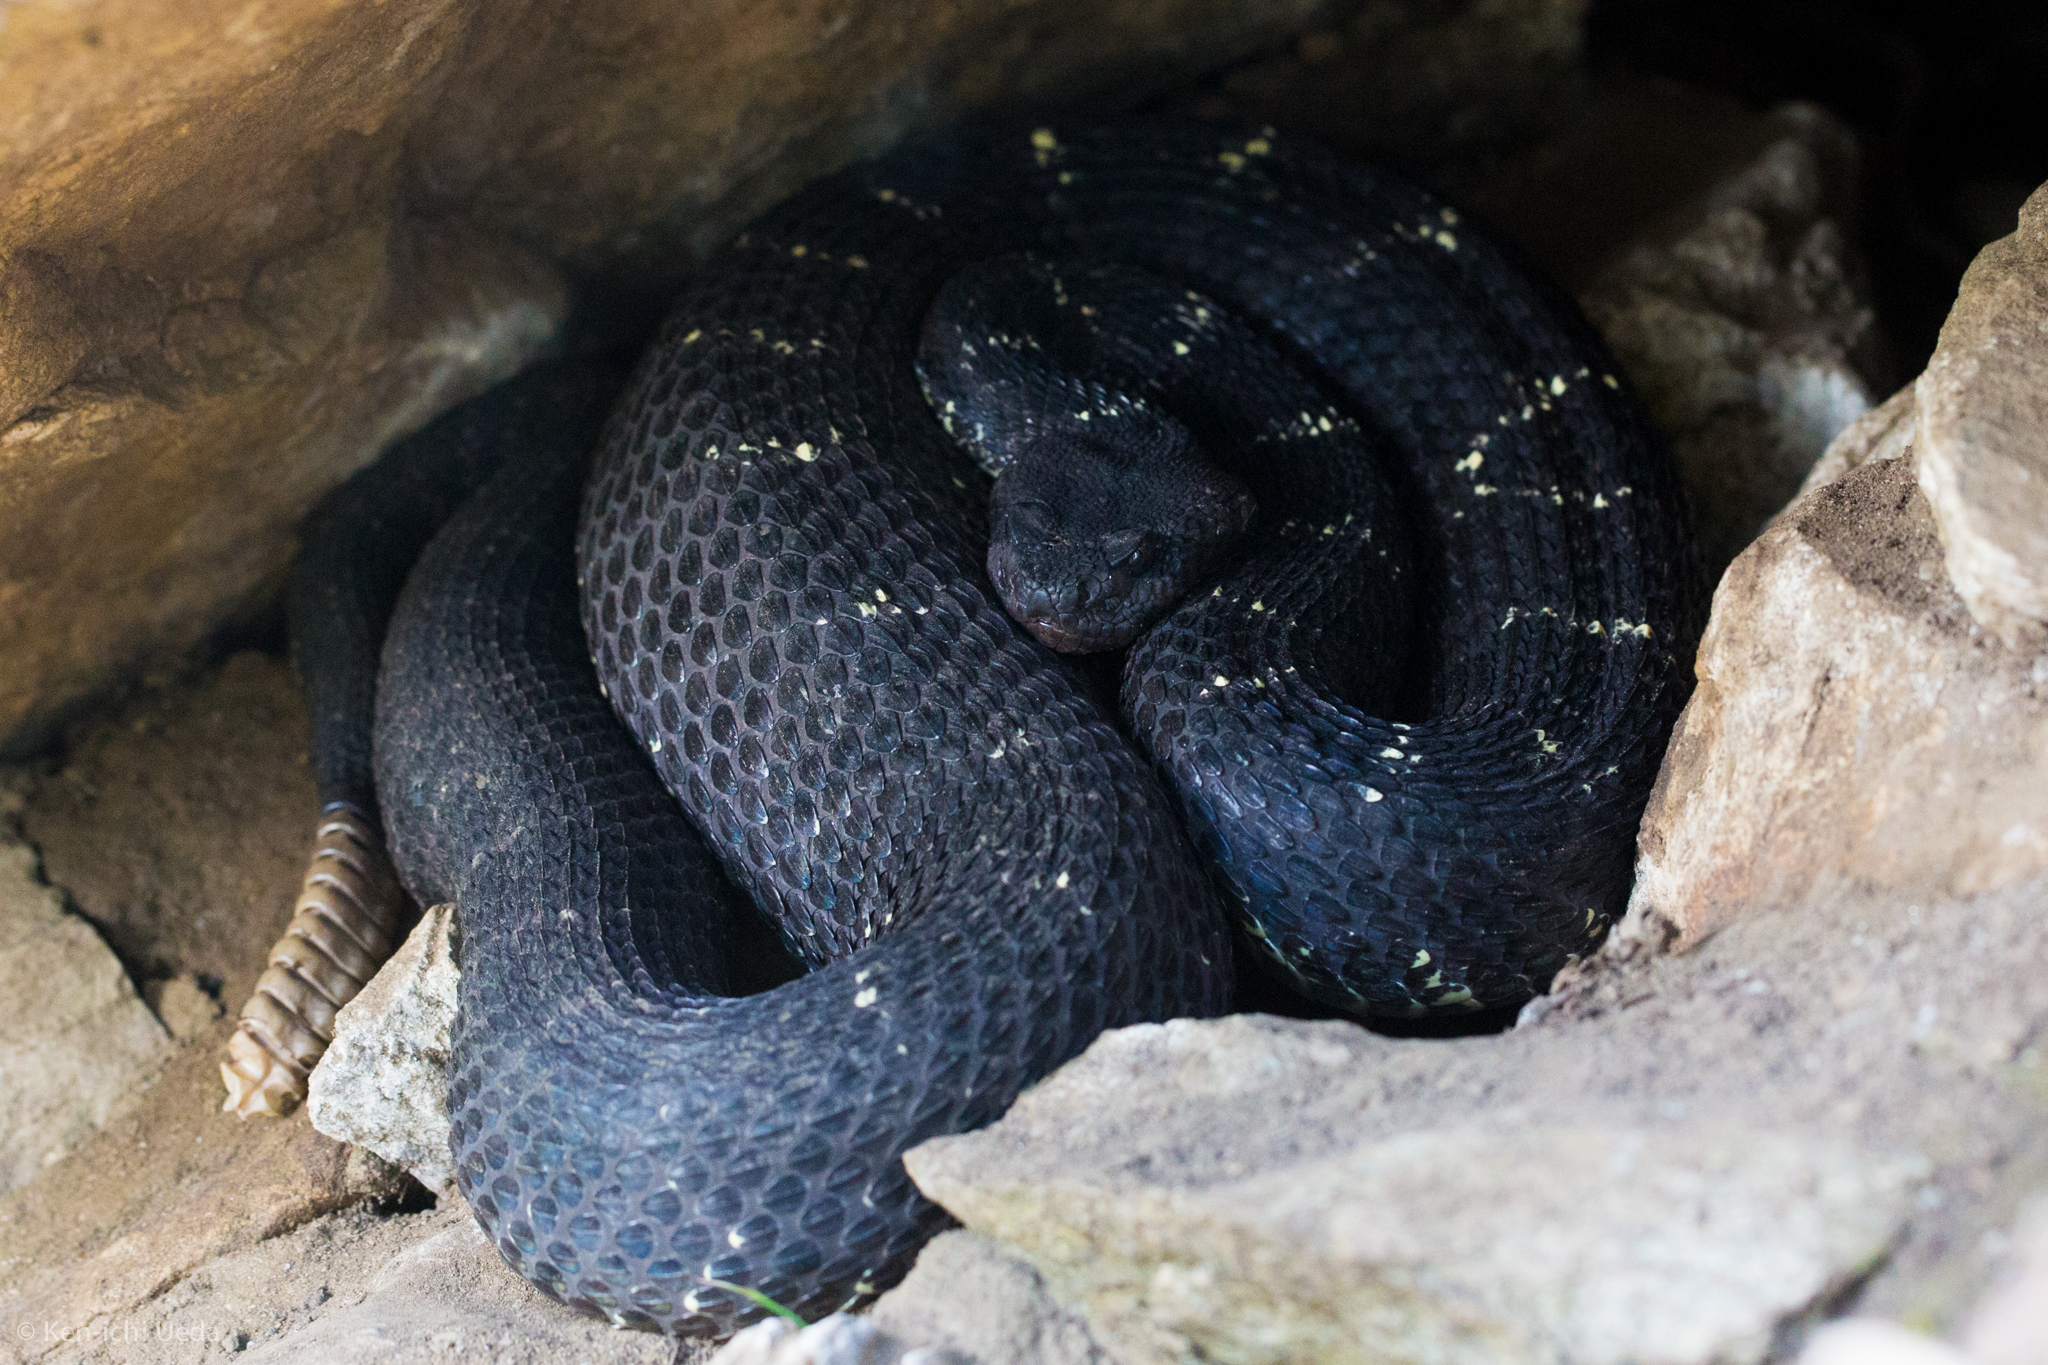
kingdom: Animalia
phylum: Chordata
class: Squamata
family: Viperidae
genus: Crotalus
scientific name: Crotalus cerberus
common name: Arizona black rattlesnake
